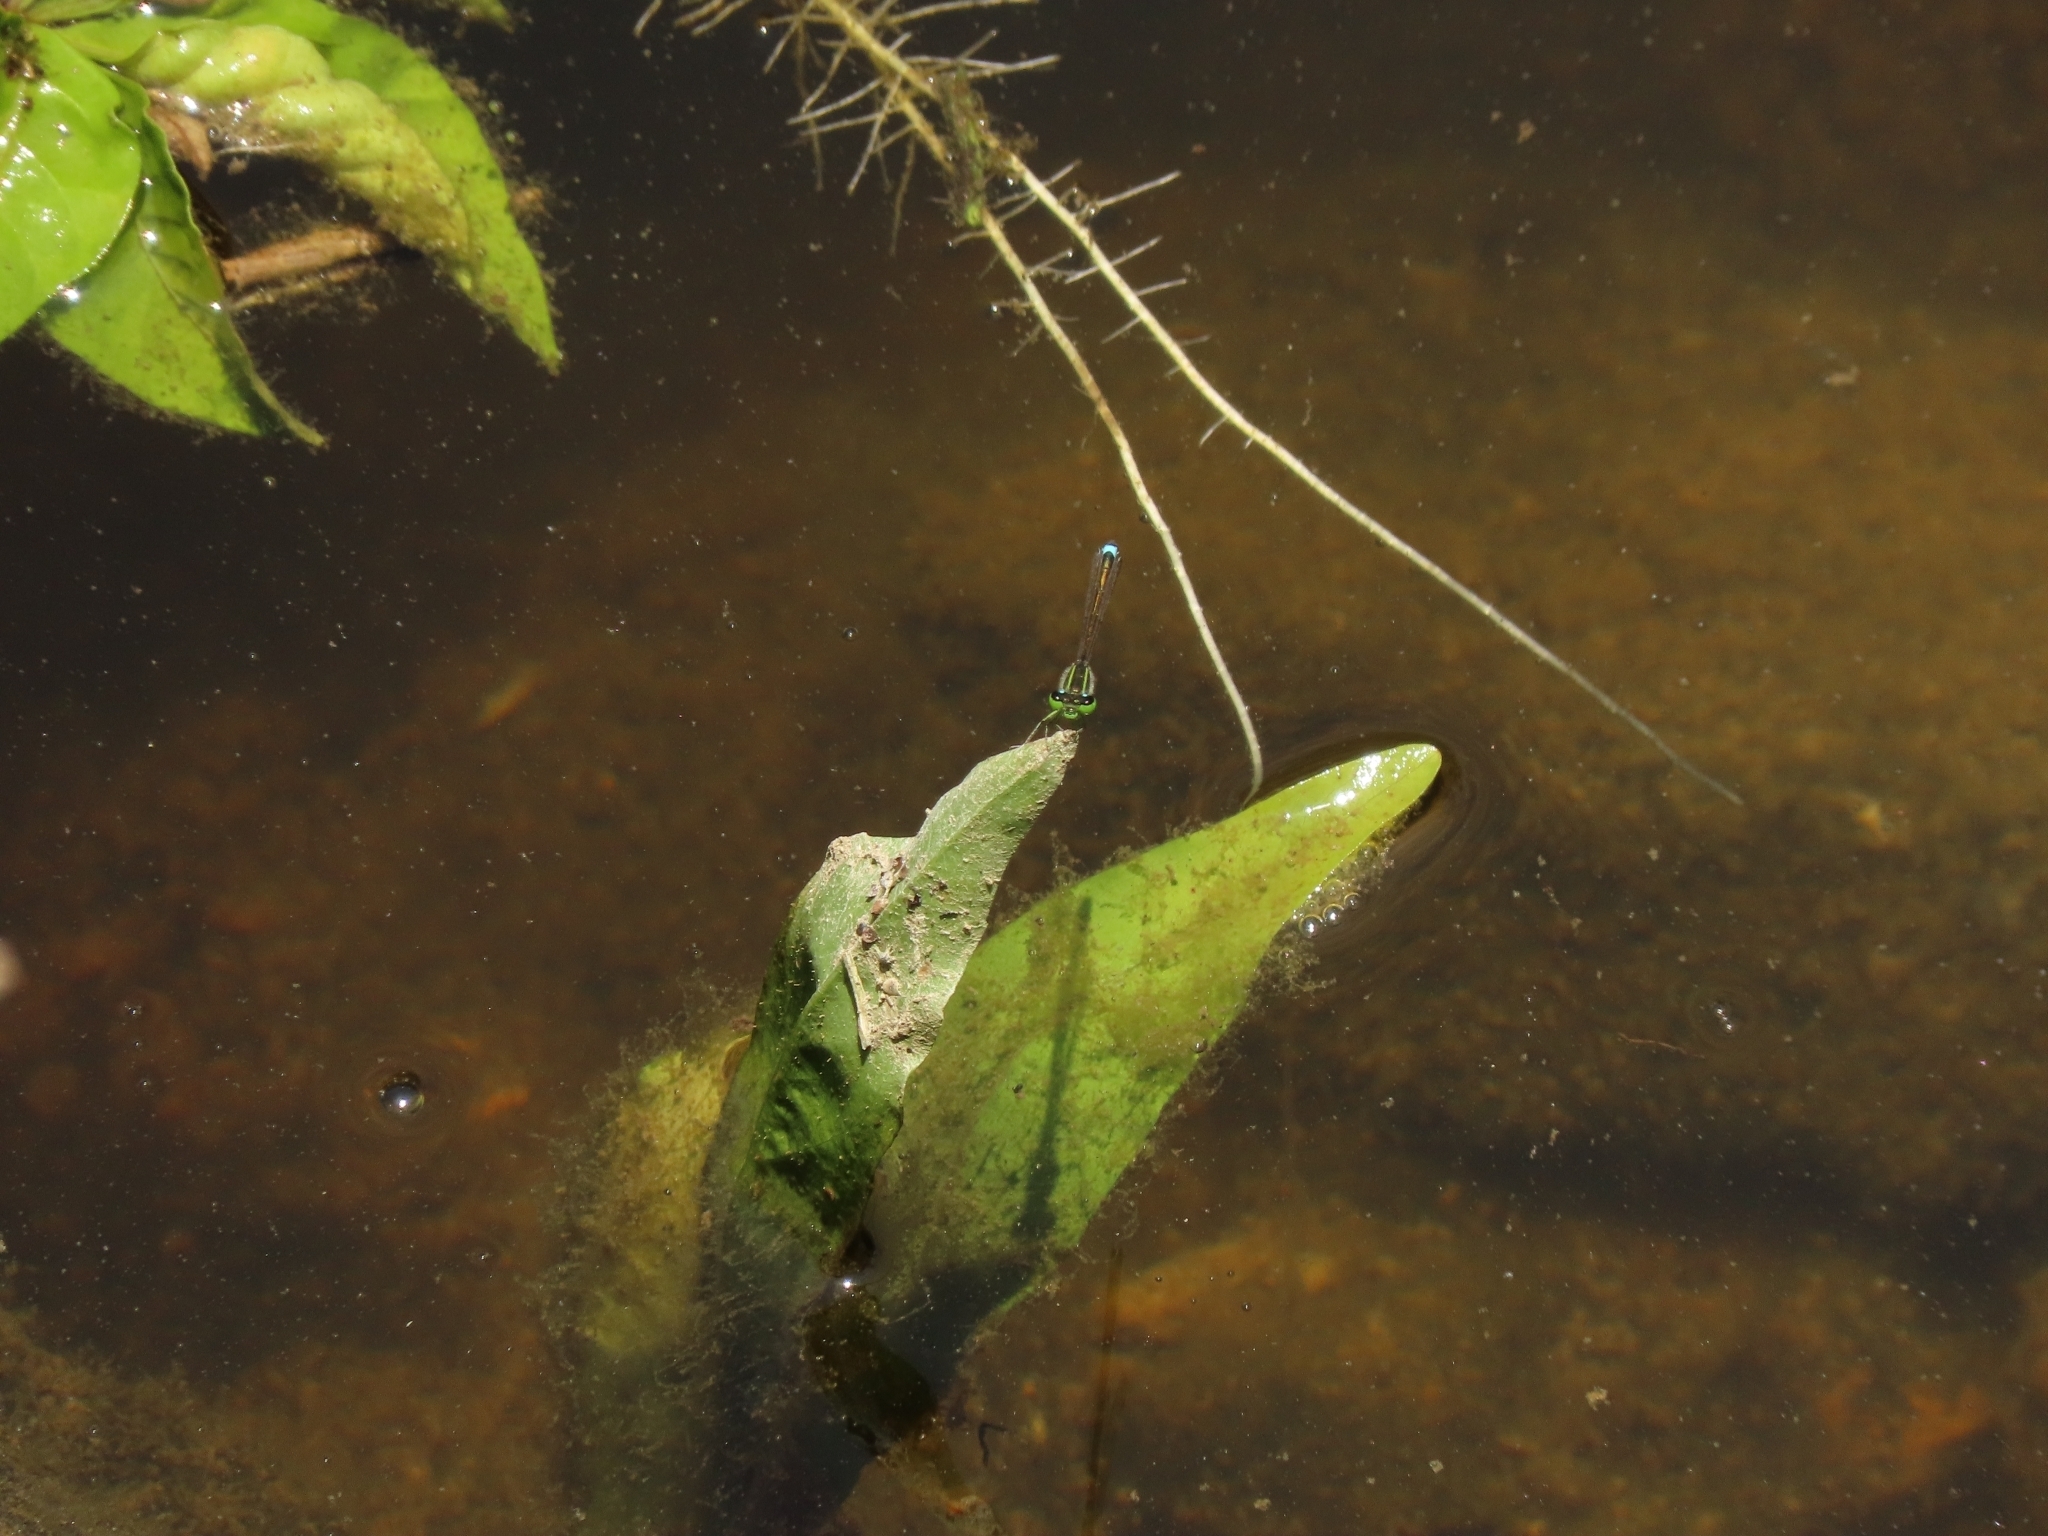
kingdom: Animalia
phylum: Arthropoda
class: Insecta
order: Odonata
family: Coenagrionidae
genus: Ischnura
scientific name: Ischnura senegalensis
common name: Tropical bluetail
